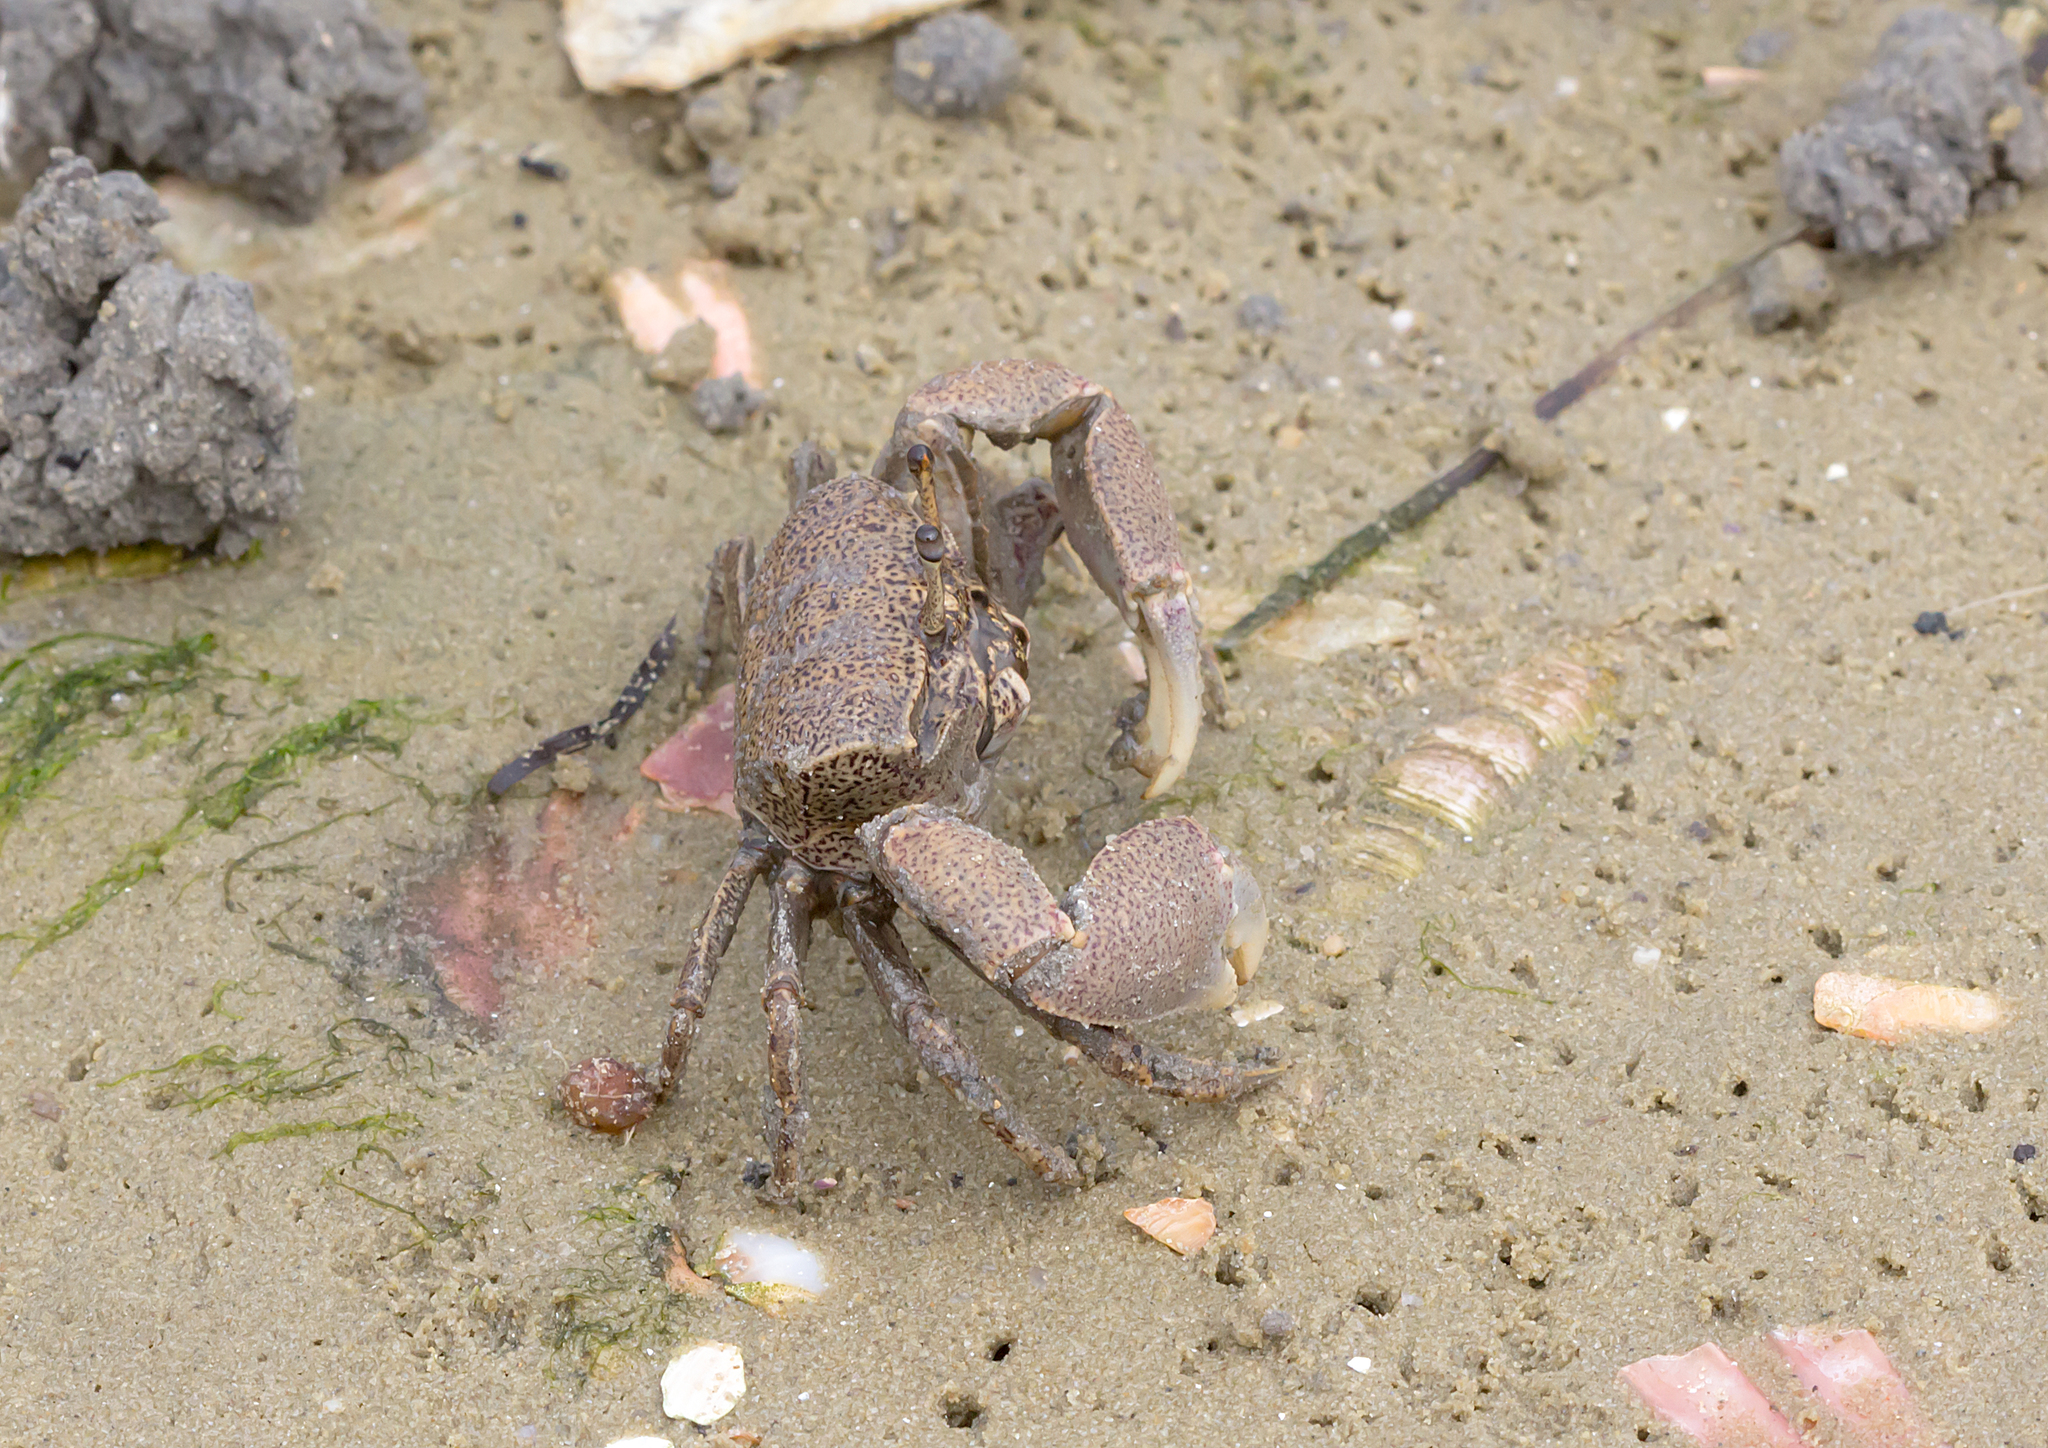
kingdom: Animalia
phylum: Arthropoda
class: Malacostraca
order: Decapoda
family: Heloeciidae
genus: Heloecius
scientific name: Heloecius cordiformis
